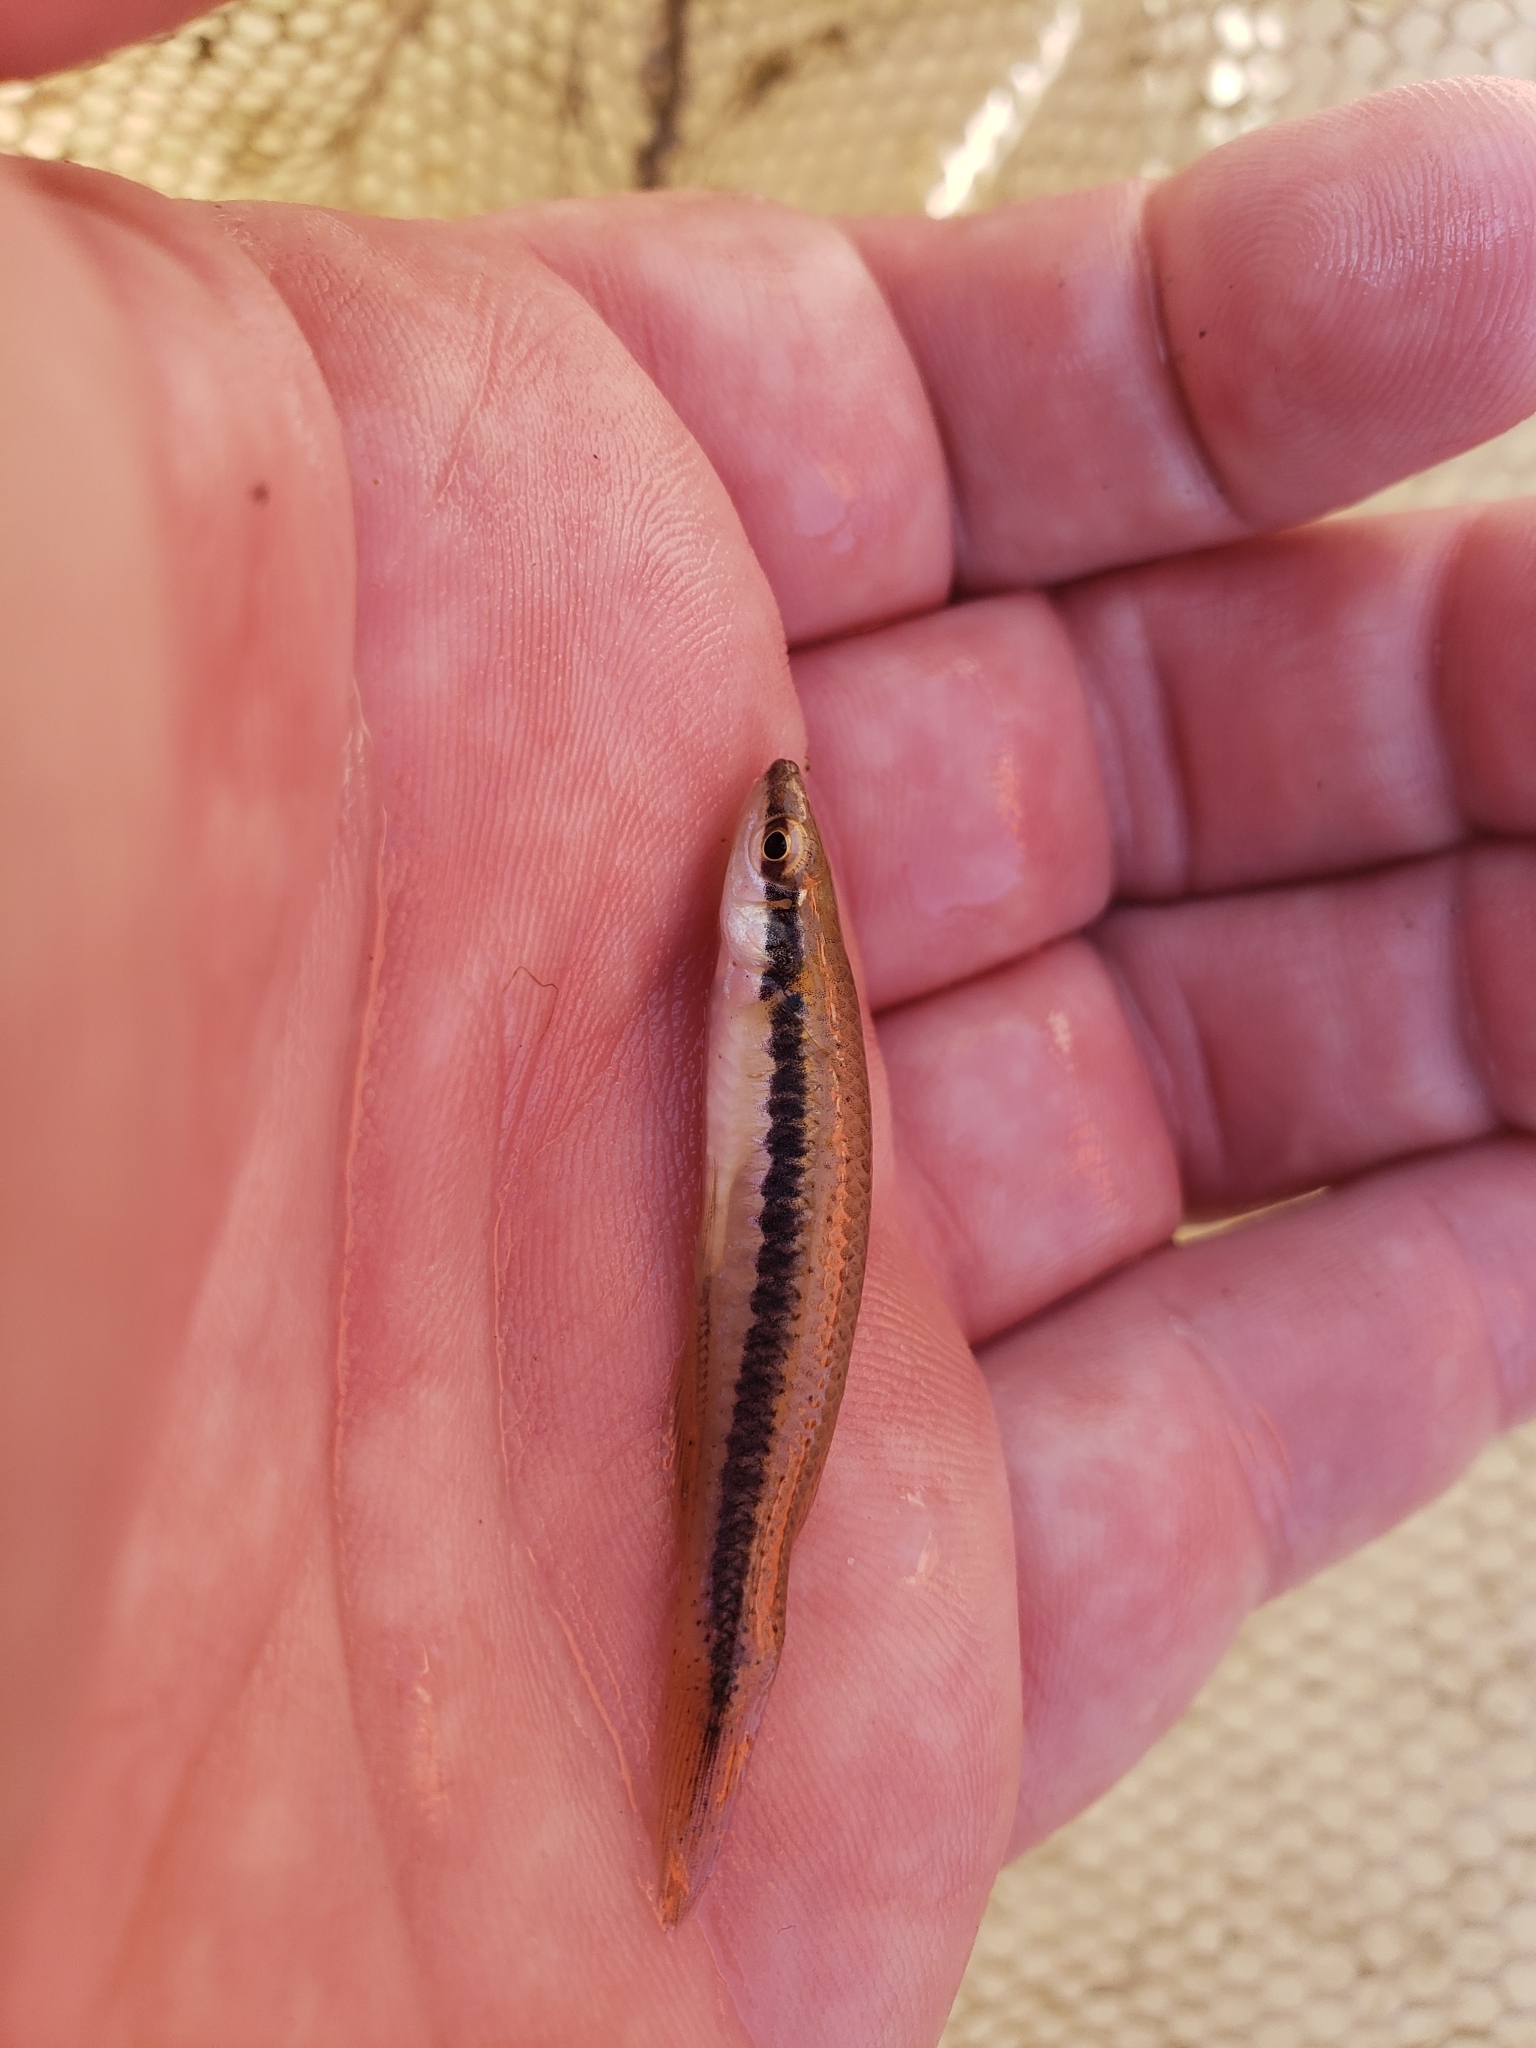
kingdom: Animalia
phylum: Chordata
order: Cyprinodontiformes
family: Fundulidae
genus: Fundulus
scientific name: Fundulus olivaceus
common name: Blackspotted topminnow
